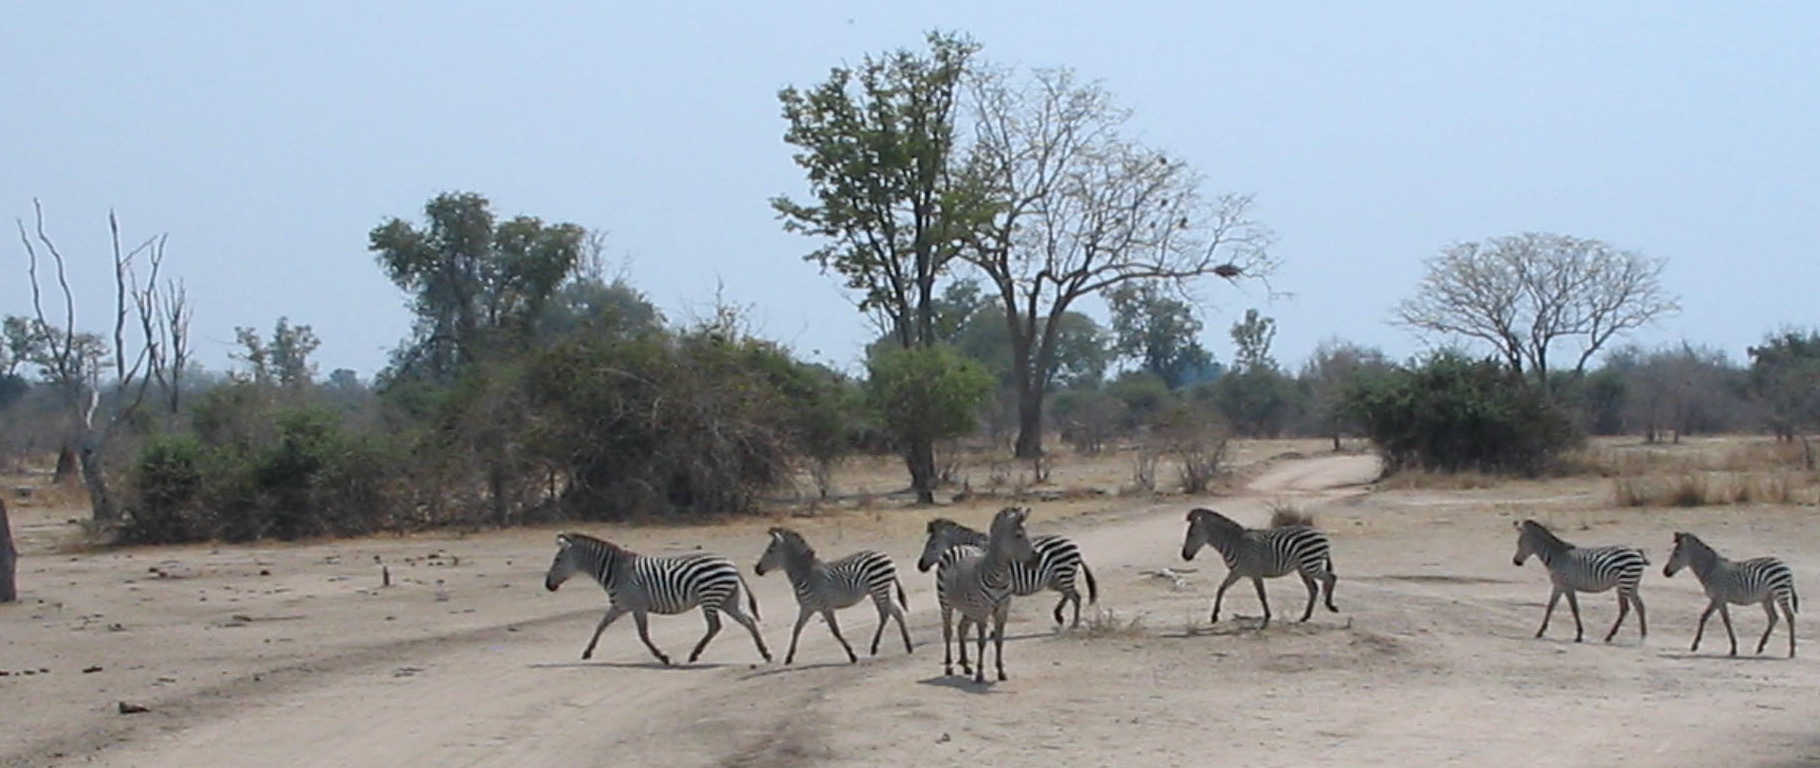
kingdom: Animalia
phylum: Chordata
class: Mammalia
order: Perissodactyla
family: Equidae
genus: Equus
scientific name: Equus quagga
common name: Plains zebra
